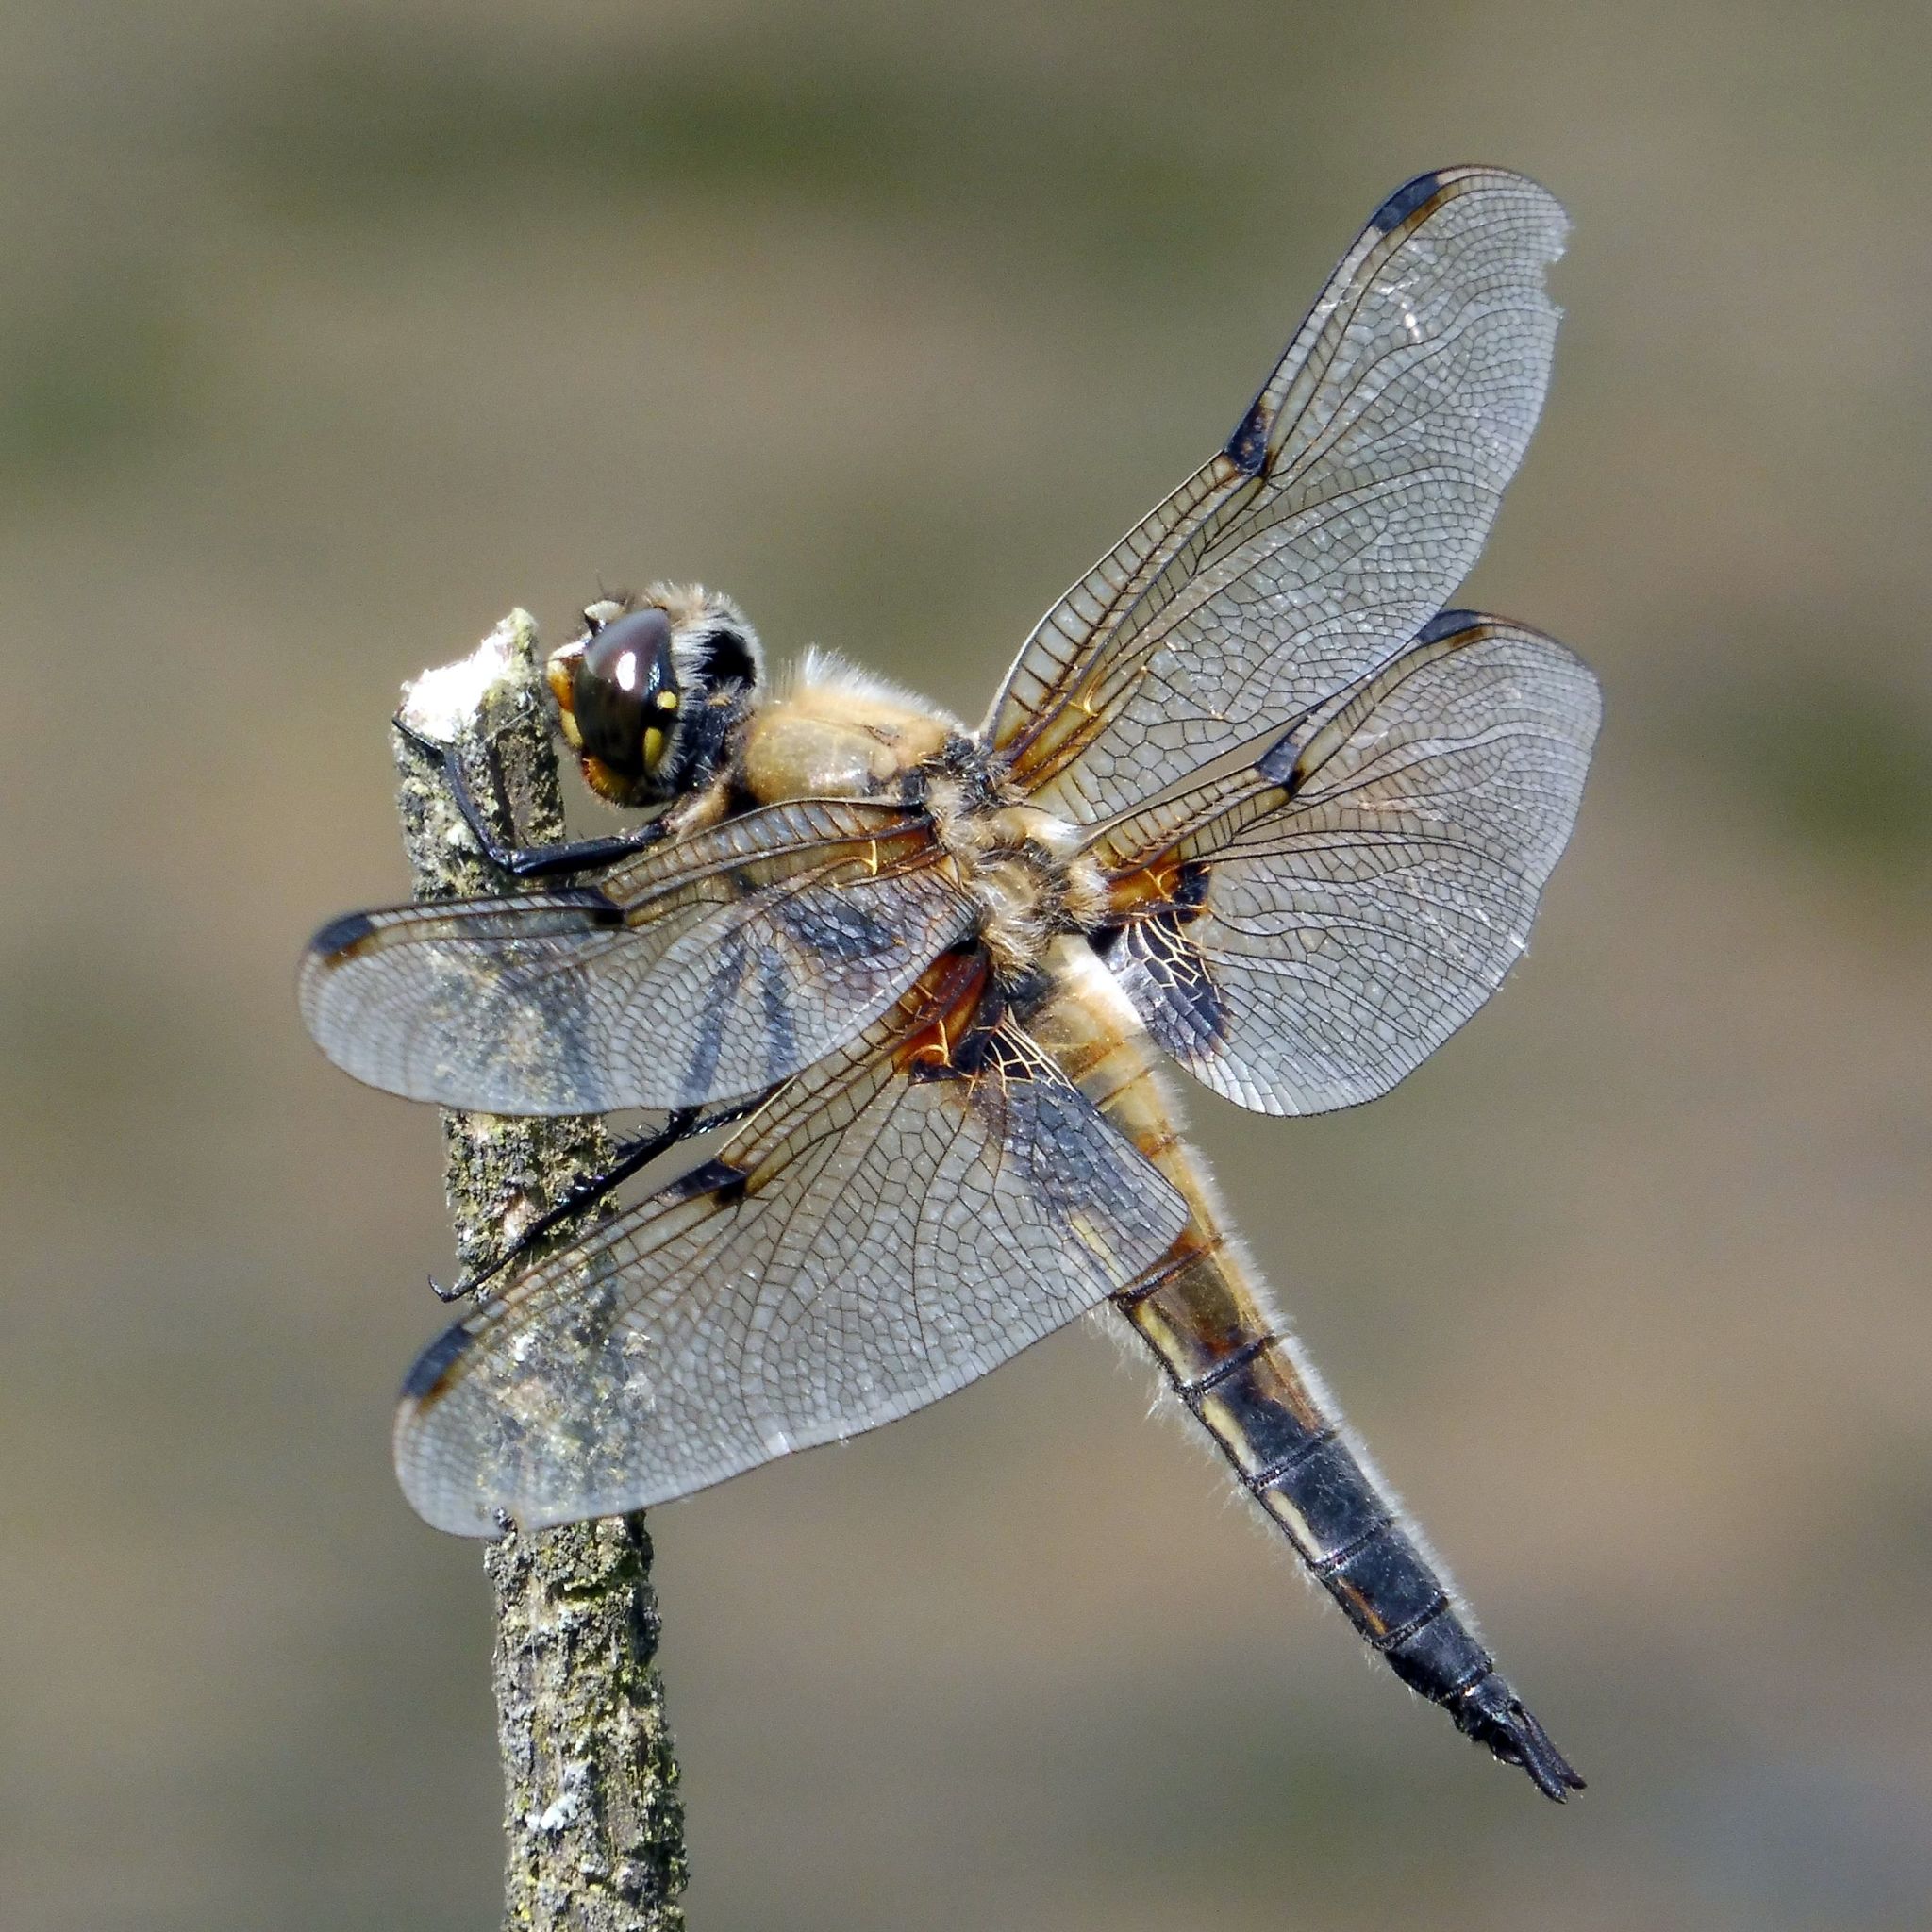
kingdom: Animalia
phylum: Arthropoda
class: Insecta
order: Odonata
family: Libellulidae
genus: Libellula
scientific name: Libellula quadrimaculata
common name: Four-spotted chaser
